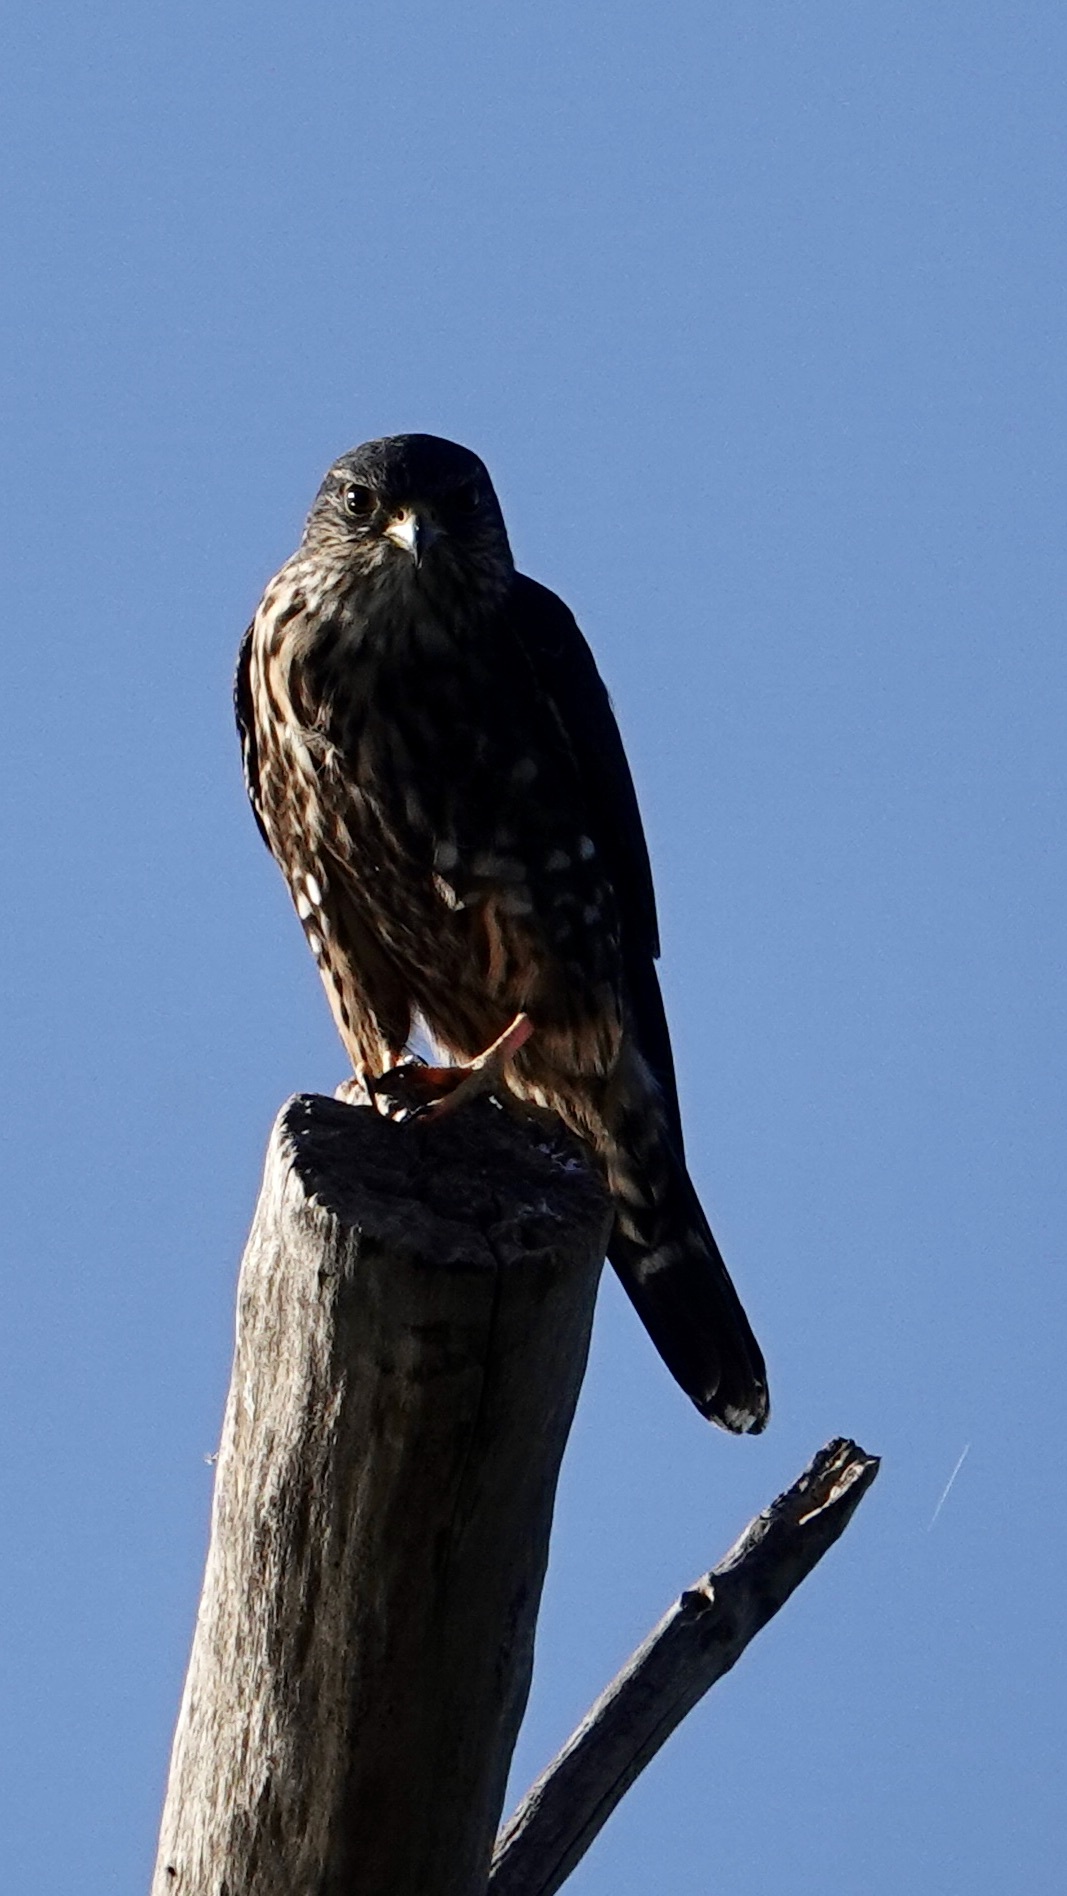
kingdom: Animalia
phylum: Chordata
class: Aves
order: Falconiformes
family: Falconidae
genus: Falco
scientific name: Falco columbarius
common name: Merlin
